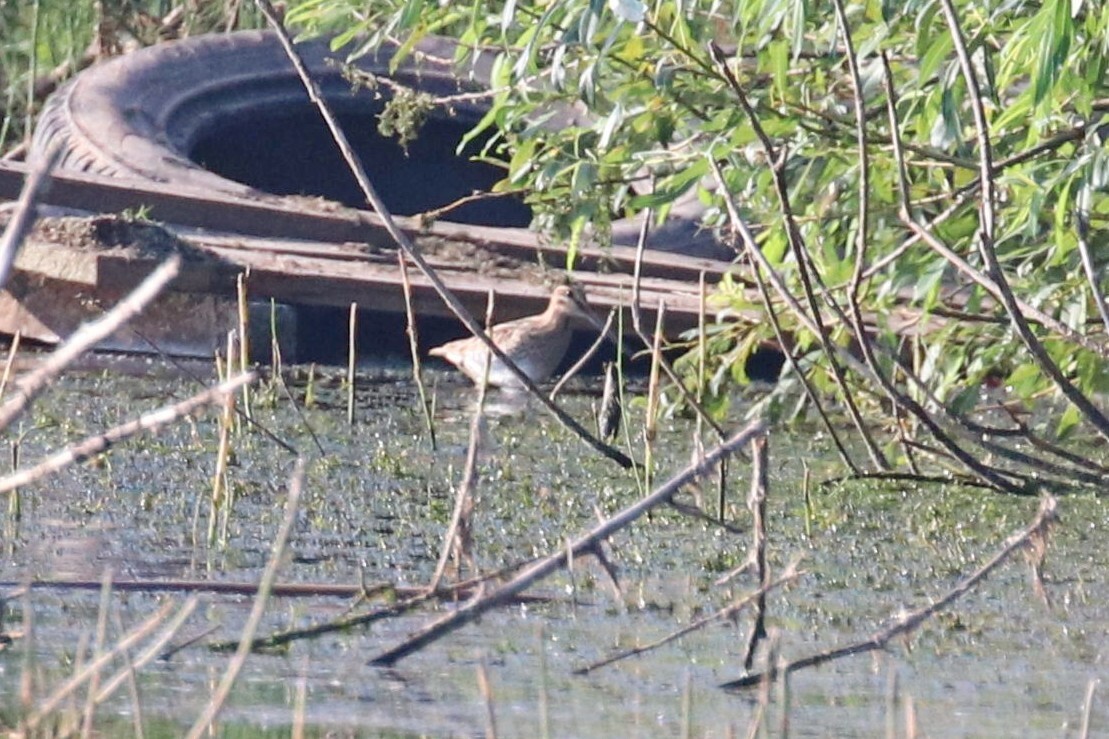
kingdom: Animalia
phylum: Chordata
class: Aves
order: Charadriiformes
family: Scolopacidae
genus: Gallinago
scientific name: Gallinago gallinago
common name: Common snipe
